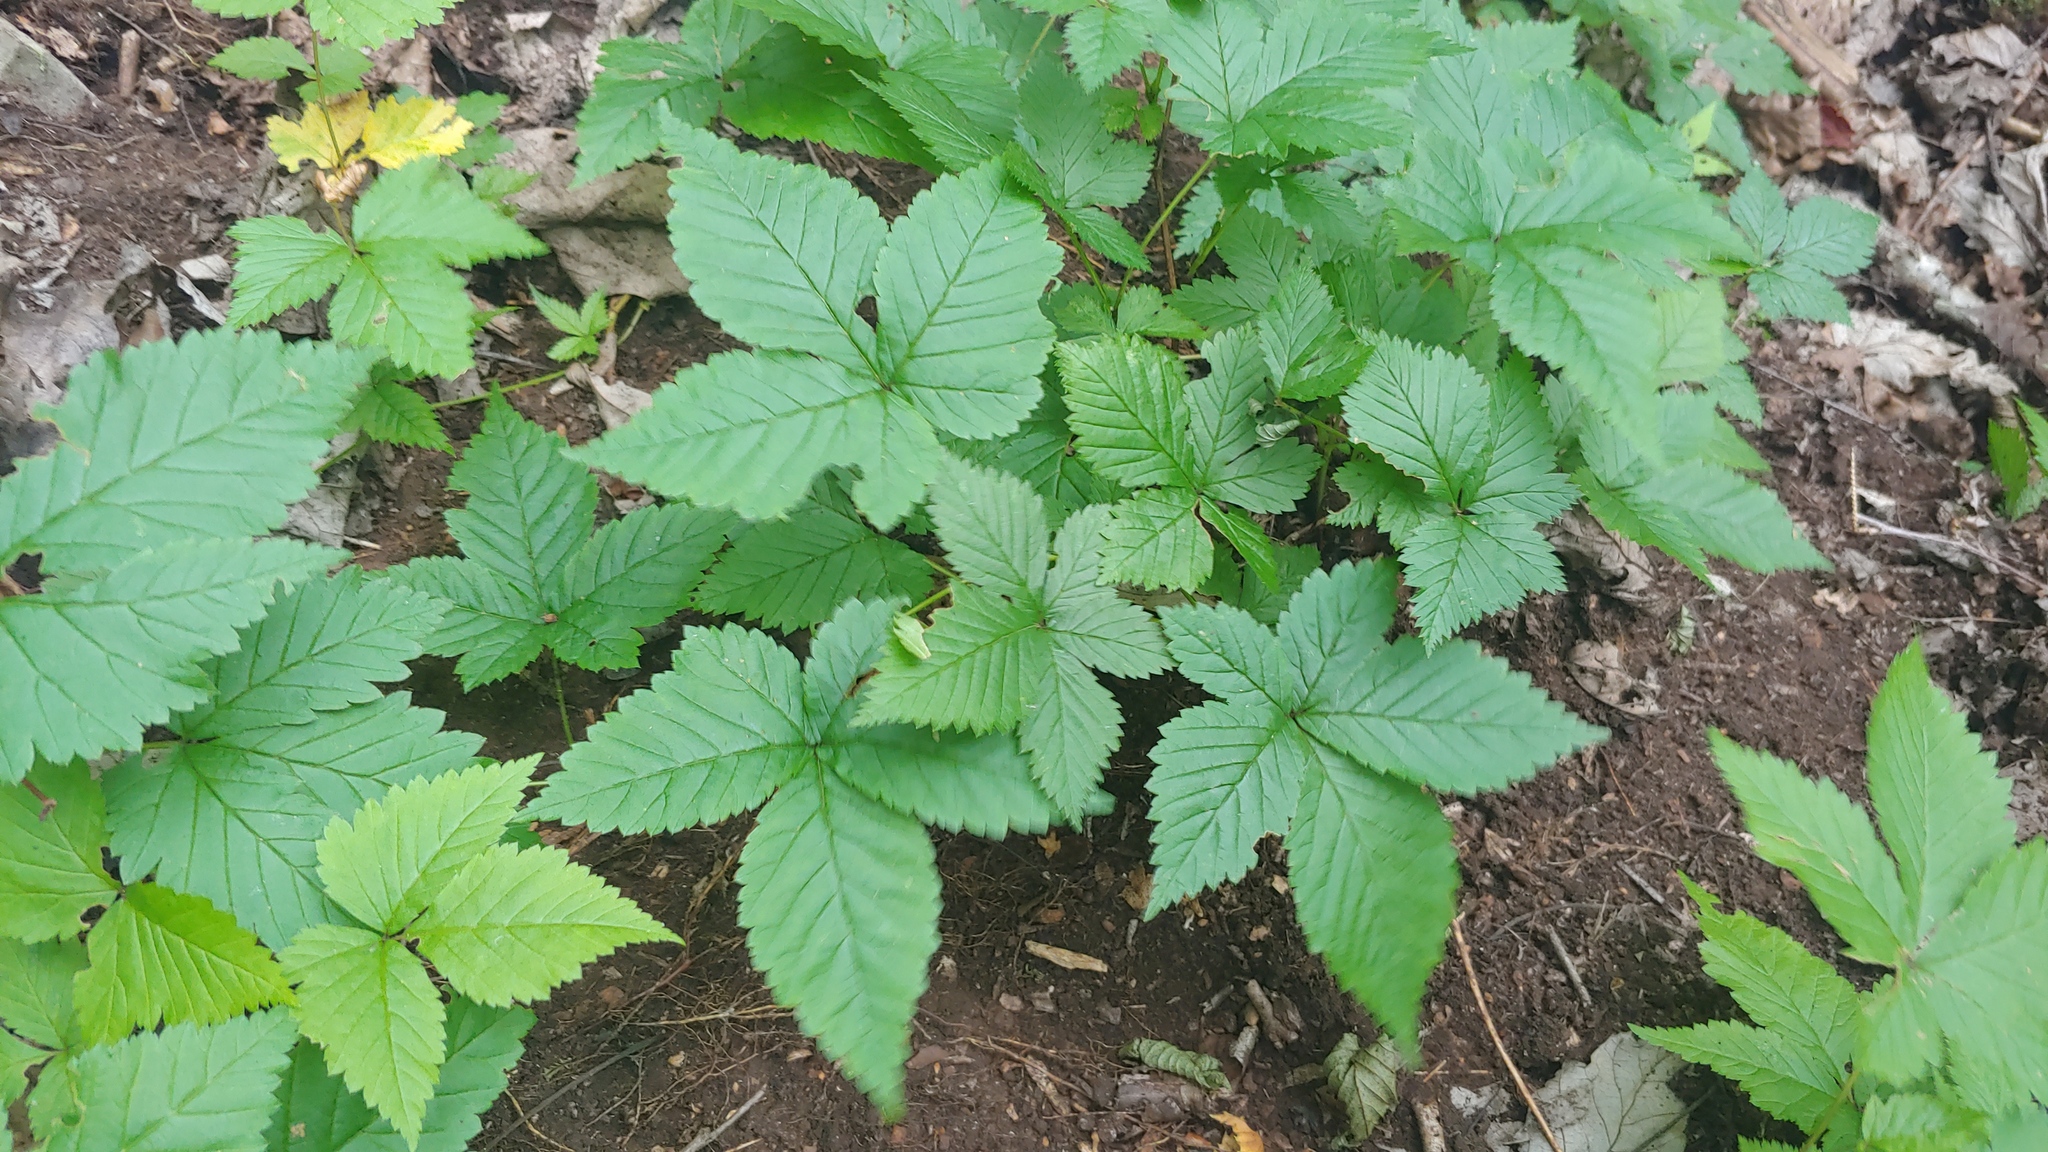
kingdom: Plantae
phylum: Tracheophyta
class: Magnoliopsida
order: Rosales
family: Rosaceae
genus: Rubus
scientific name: Rubus pubescens
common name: Dwarf raspberry
